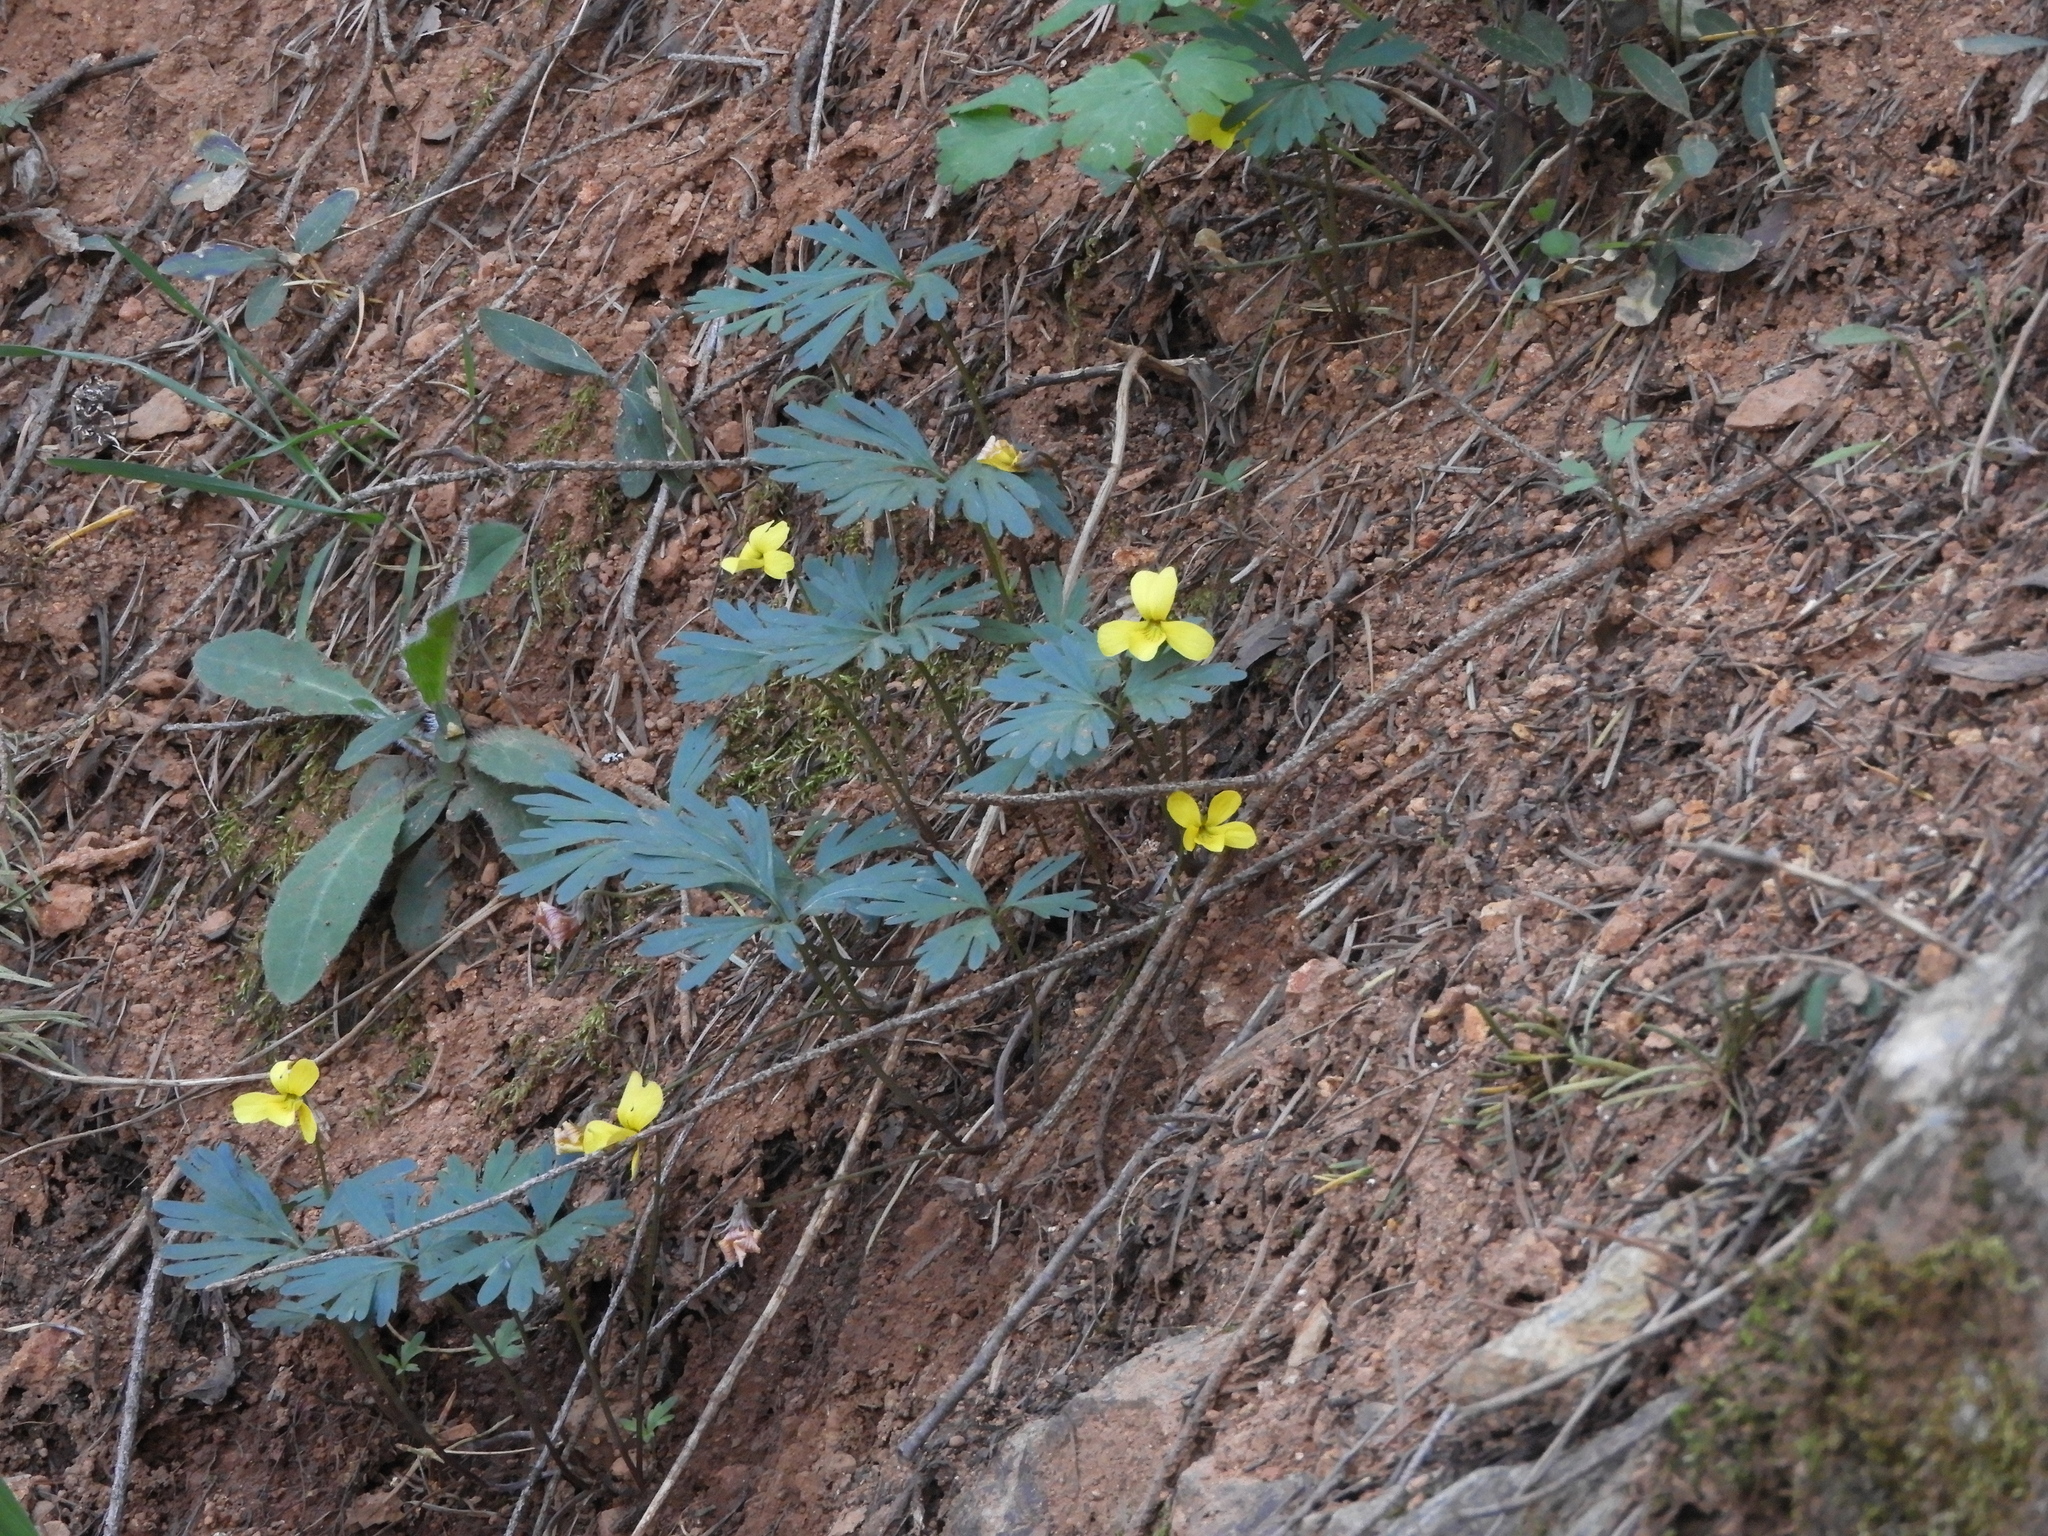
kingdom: Plantae
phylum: Tracheophyta
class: Magnoliopsida
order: Malpighiales
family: Violaceae
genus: Viola
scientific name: Viola sheltonii
